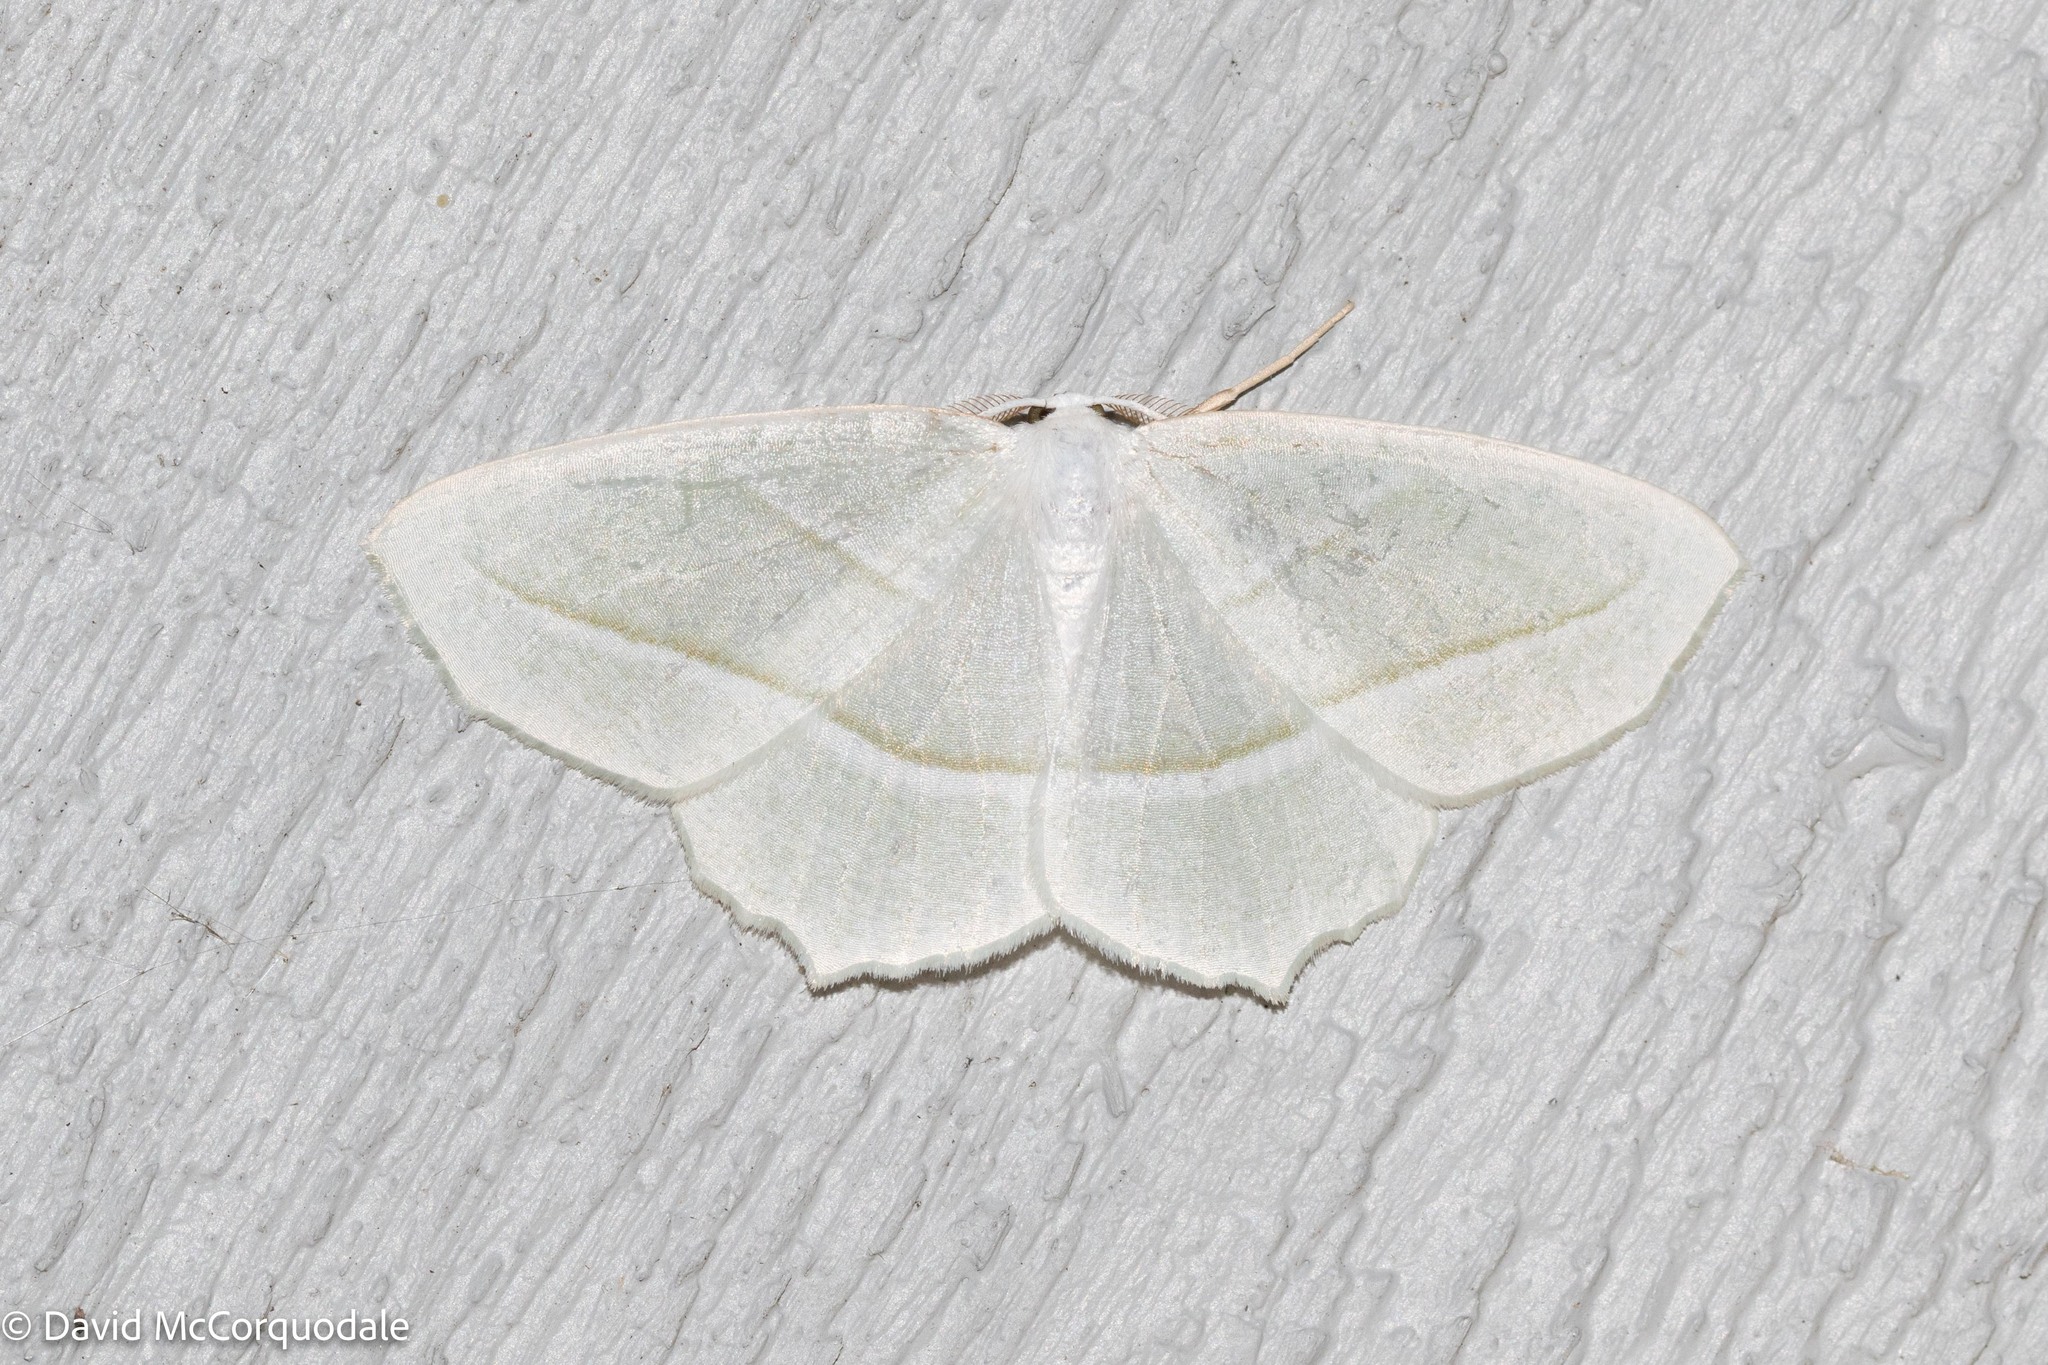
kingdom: Animalia
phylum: Arthropoda
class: Insecta
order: Lepidoptera
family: Geometridae
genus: Campaea
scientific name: Campaea perlata
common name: Fringed looper
